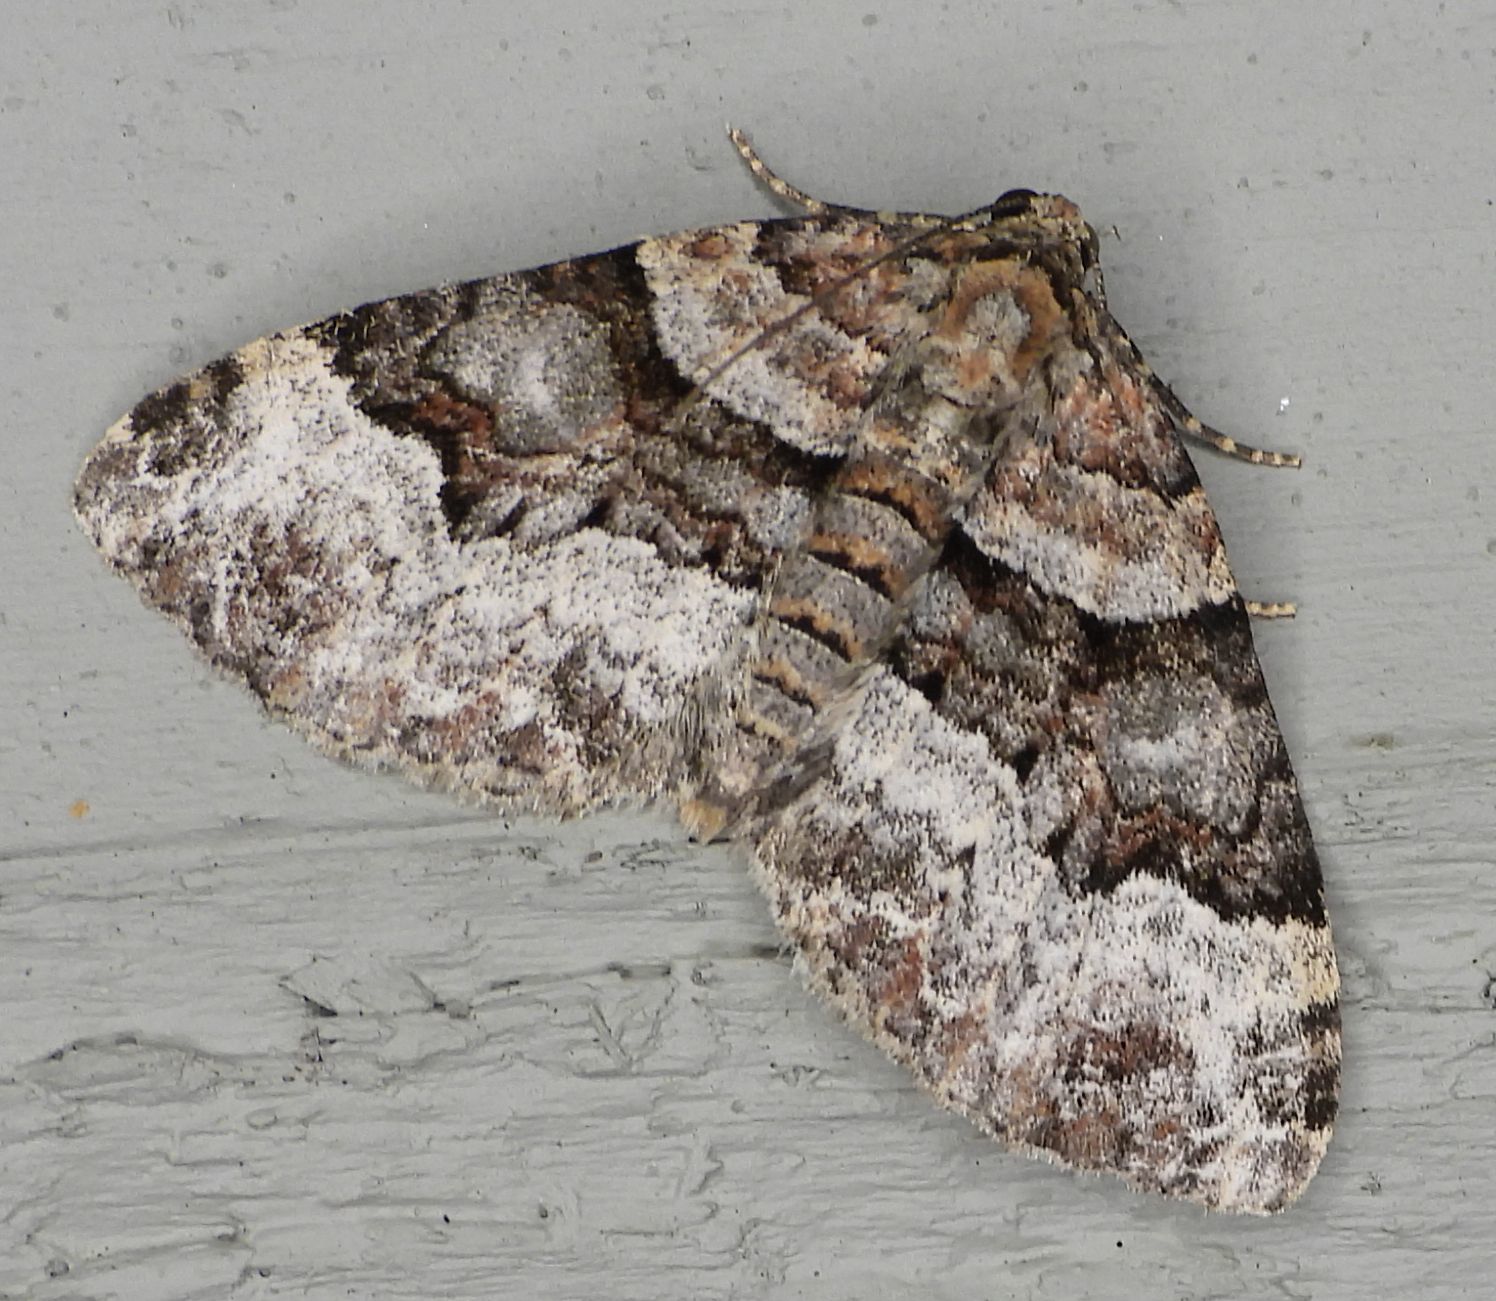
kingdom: Animalia
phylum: Arthropoda
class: Insecta
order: Lepidoptera
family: Geometridae
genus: Xanthorhoe
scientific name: Xanthorhoe lacustrata
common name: Toothed brown carpet
